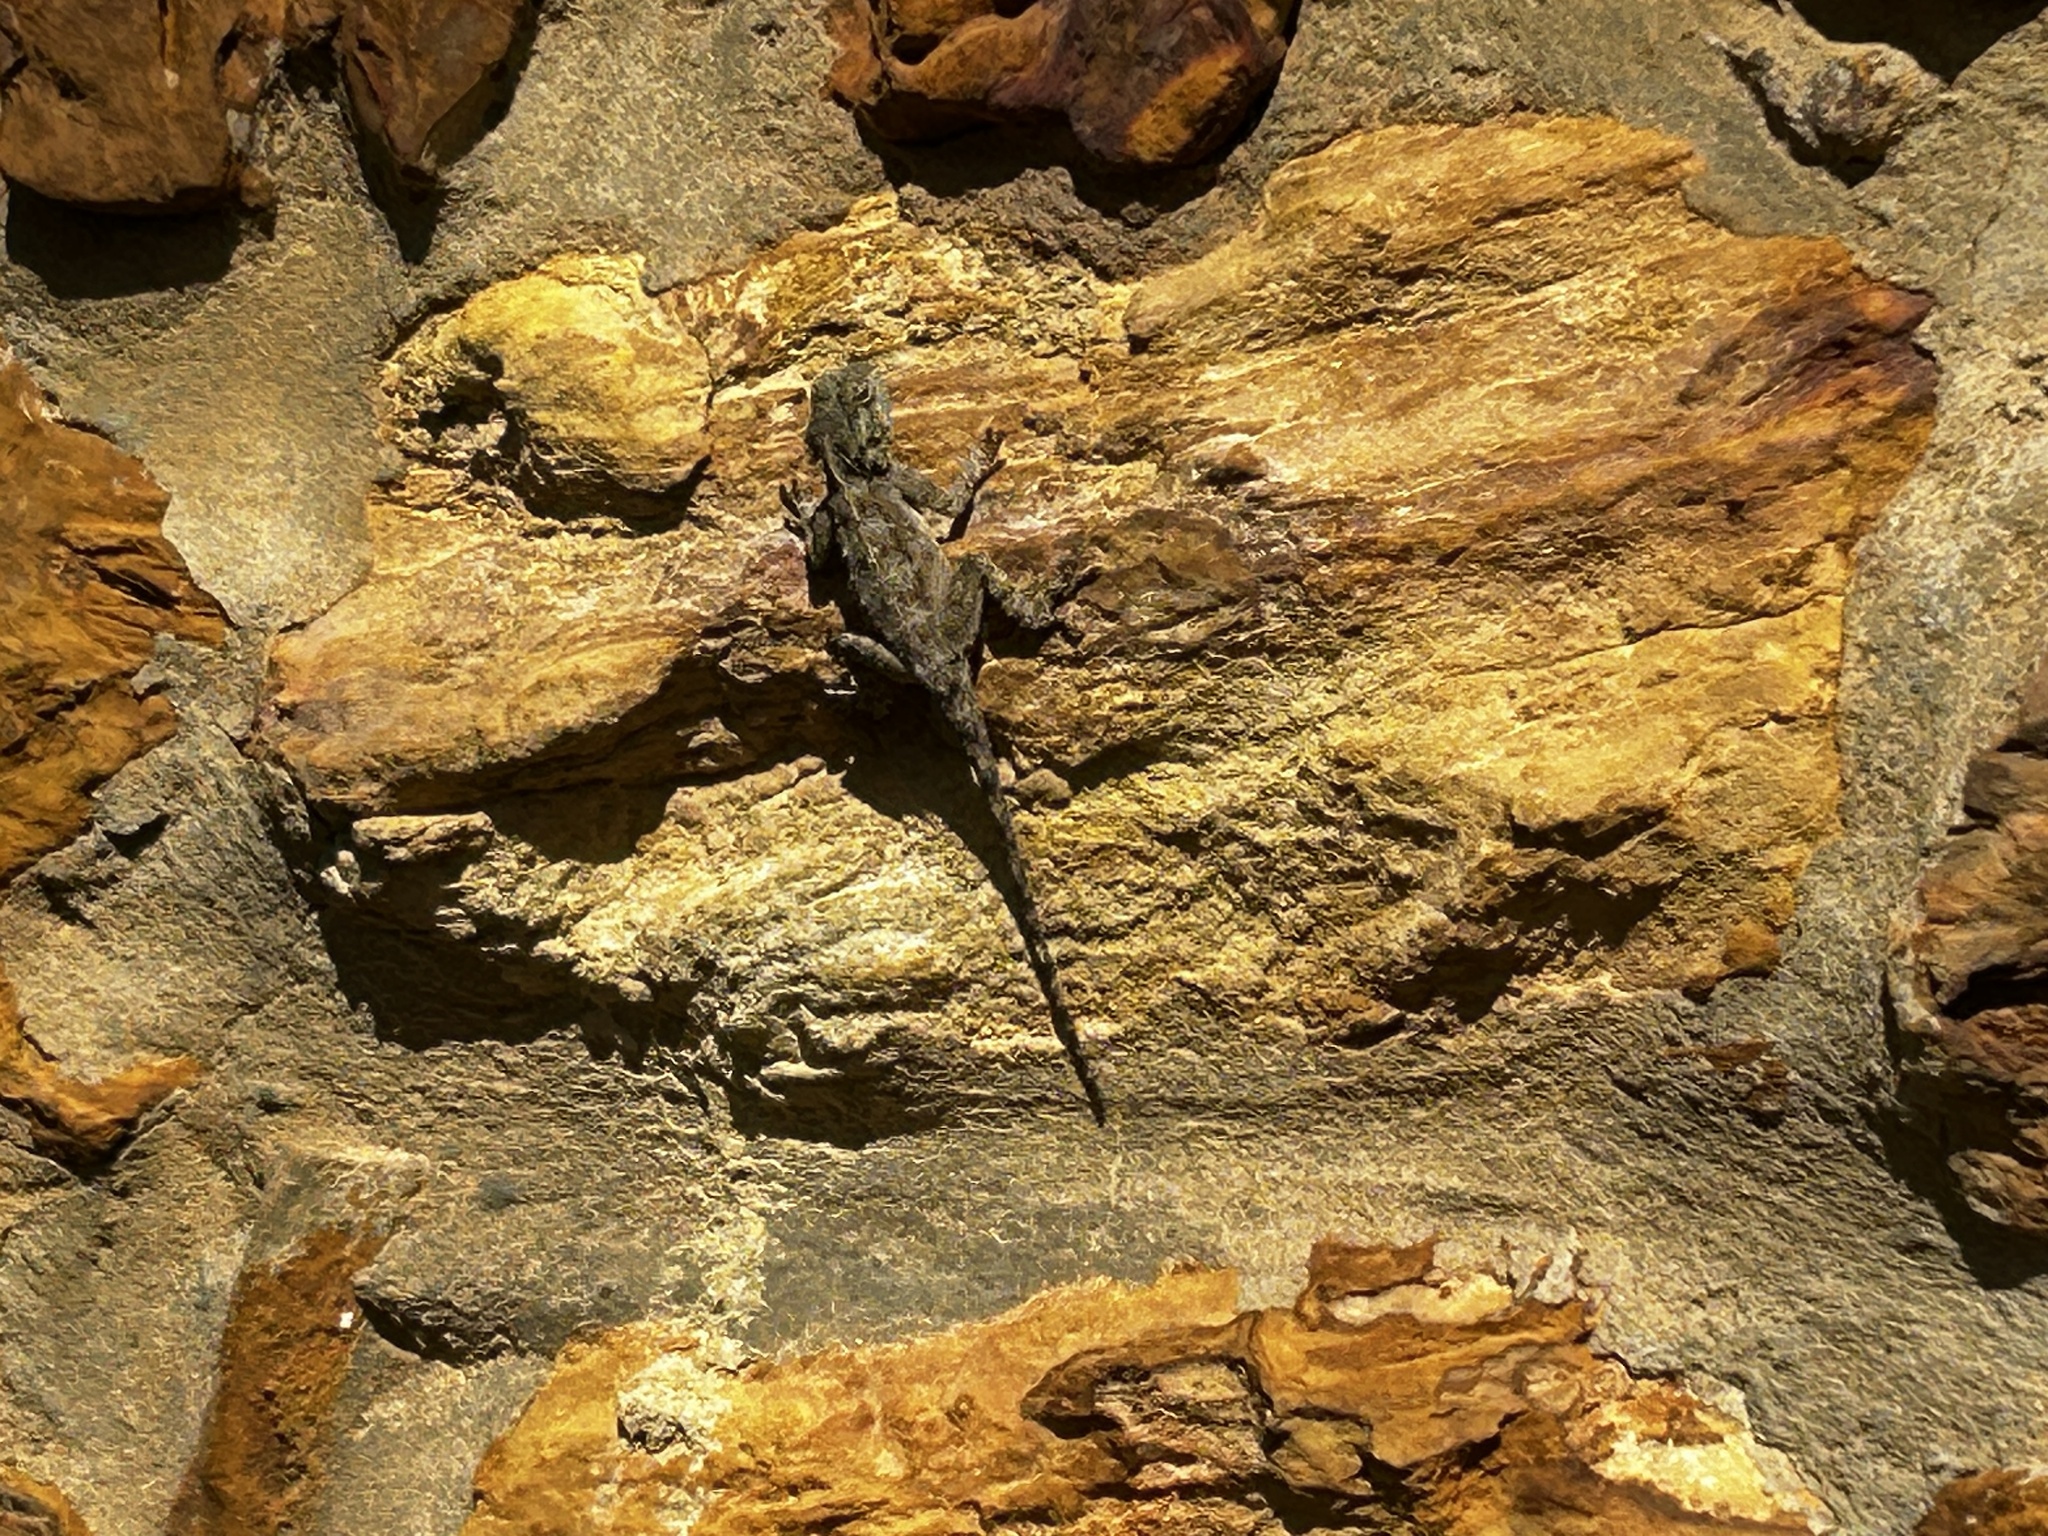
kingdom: Animalia
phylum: Chordata
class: Squamata
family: Agamidae
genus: Agama
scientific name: Agama atra
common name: Southern african rock agama
